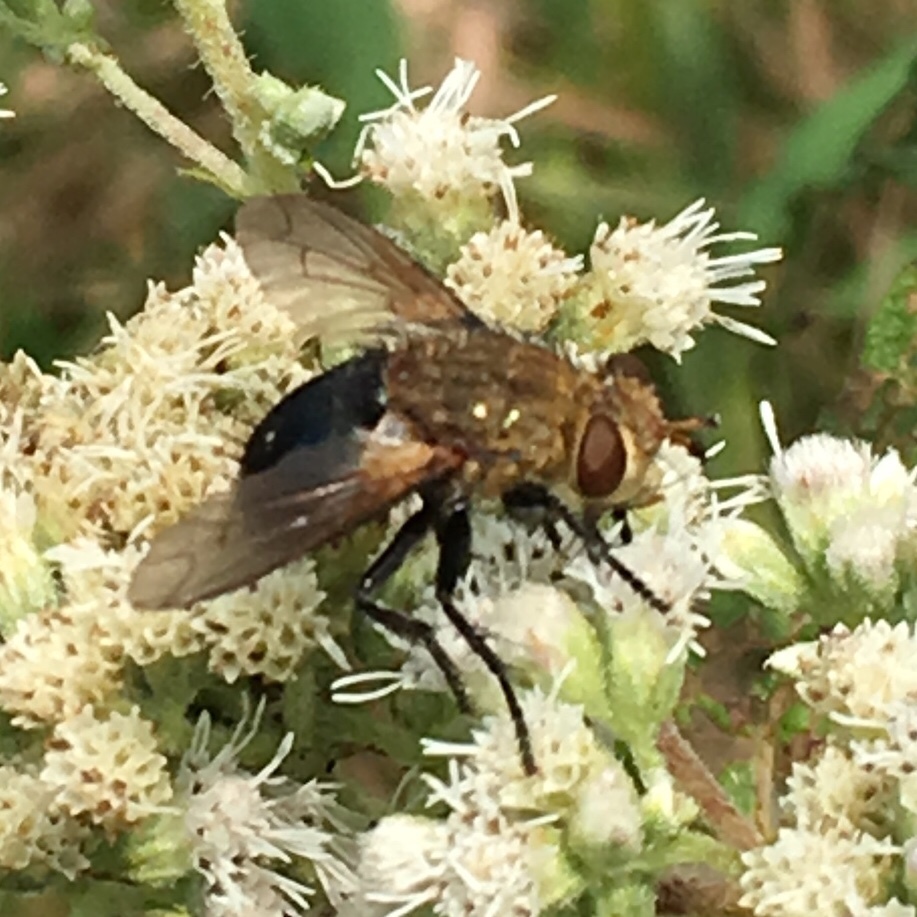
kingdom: Animalia
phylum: Arthropoda
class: Insecta
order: Diptera
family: Tachinidae
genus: Archytas
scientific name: Archytas apicifer
